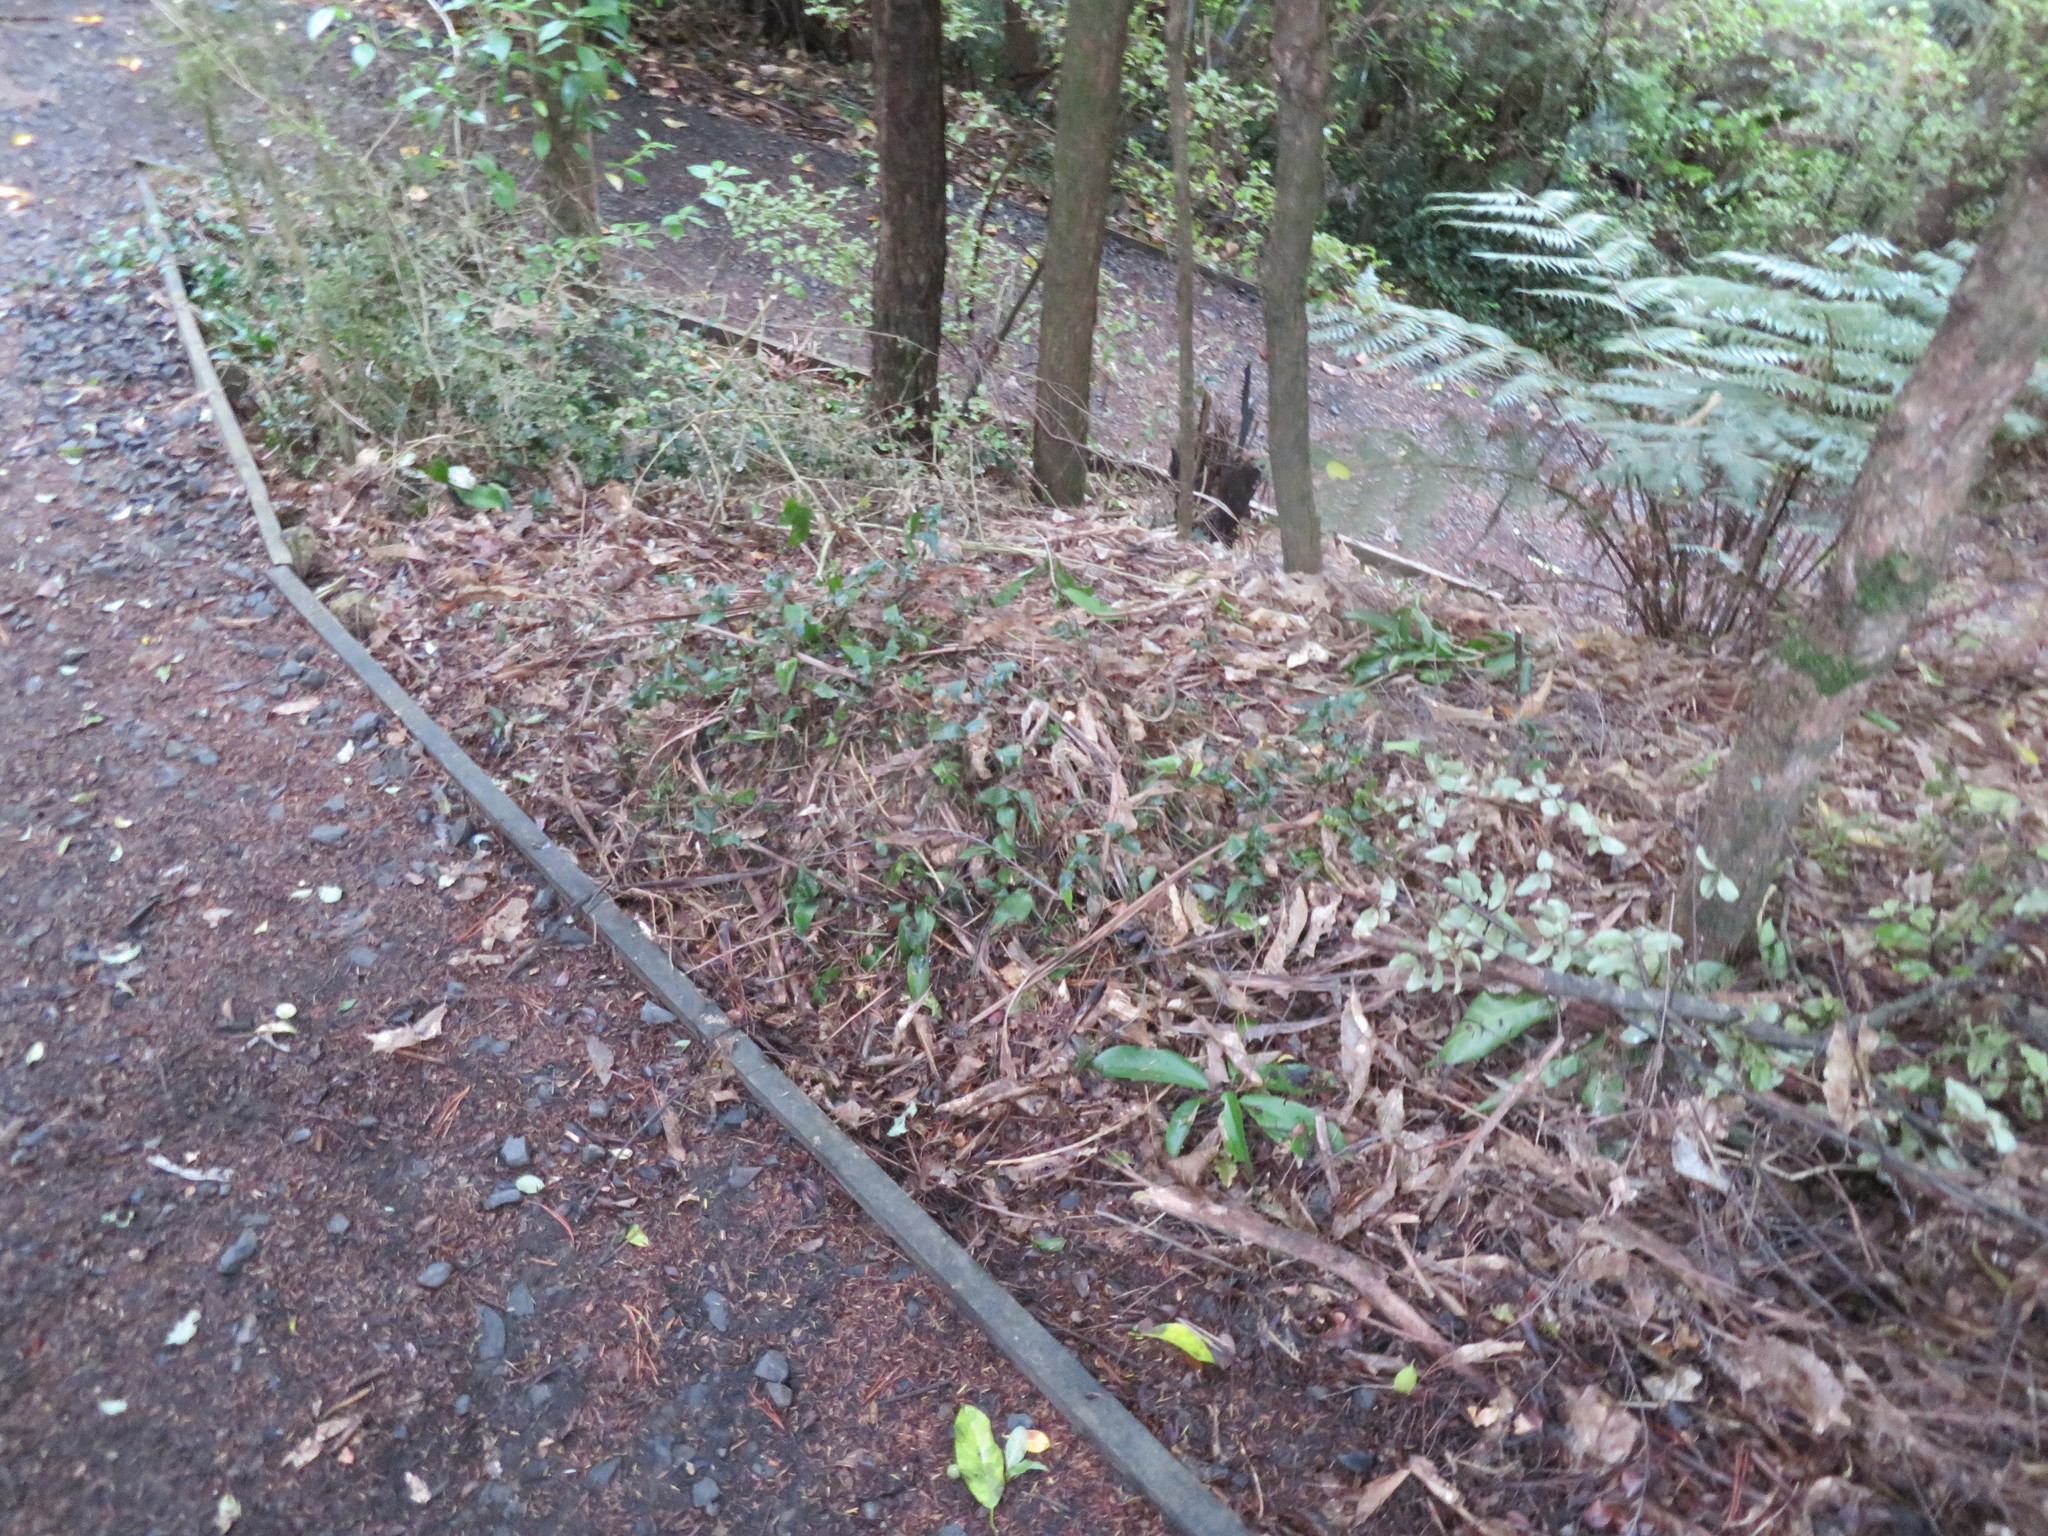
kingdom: Plantae
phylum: Tracheophyta
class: Liliopsida
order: Commelinales
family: Commelinaceae
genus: Tradescantia
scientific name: Tradescantia fluminensis
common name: Wandering-jew
